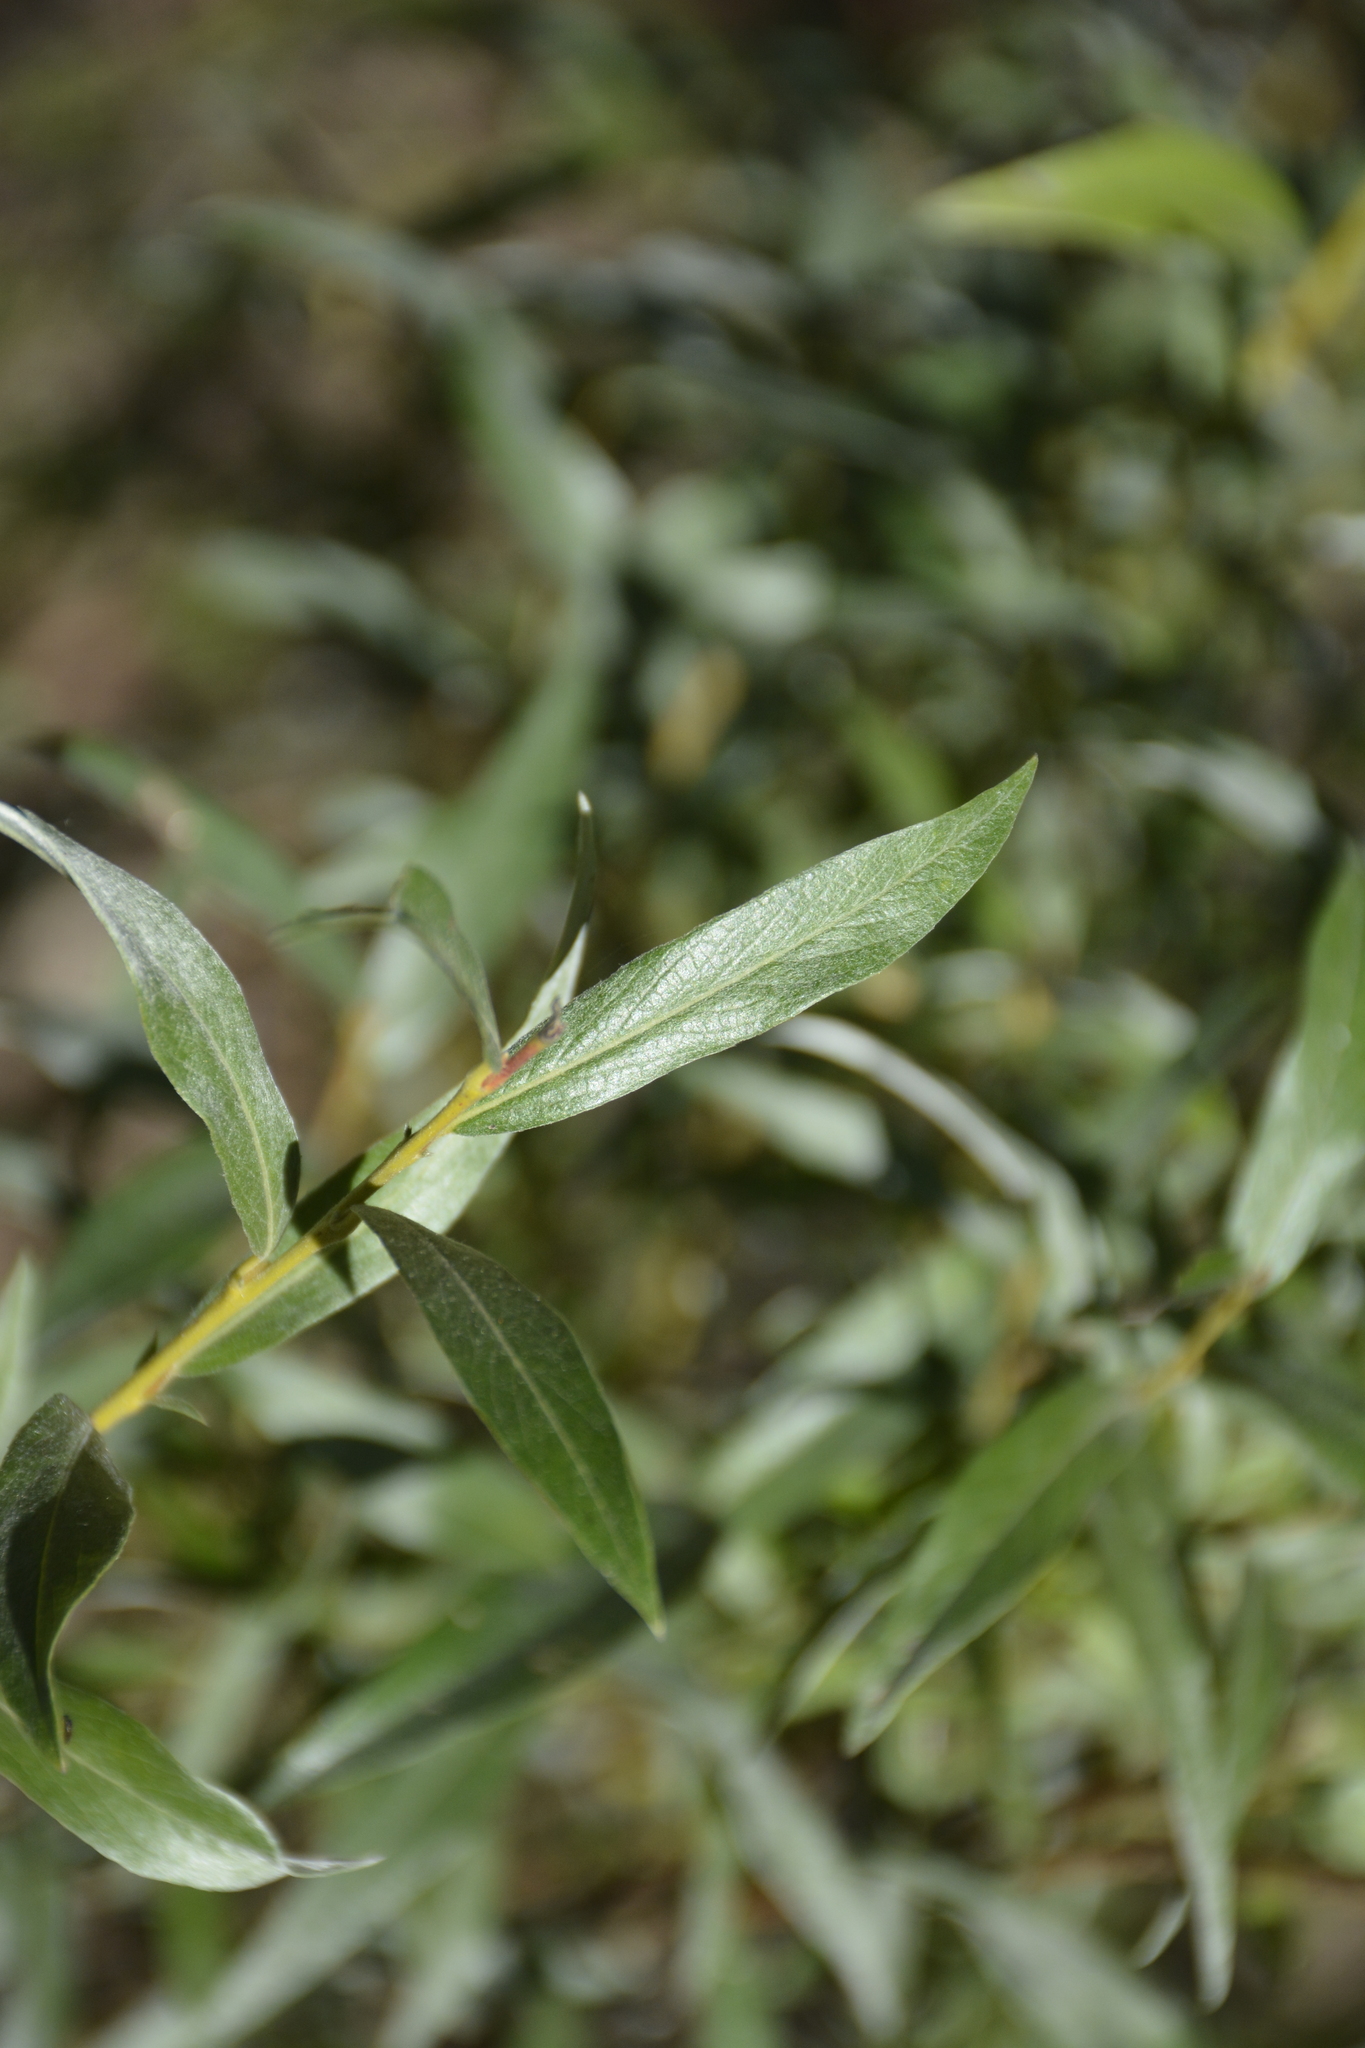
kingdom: Plantae
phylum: Tracheophyta
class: Magnoliopsida
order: Malpighiales
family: Salicaceae
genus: Salix
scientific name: Salix alba
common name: White willow
